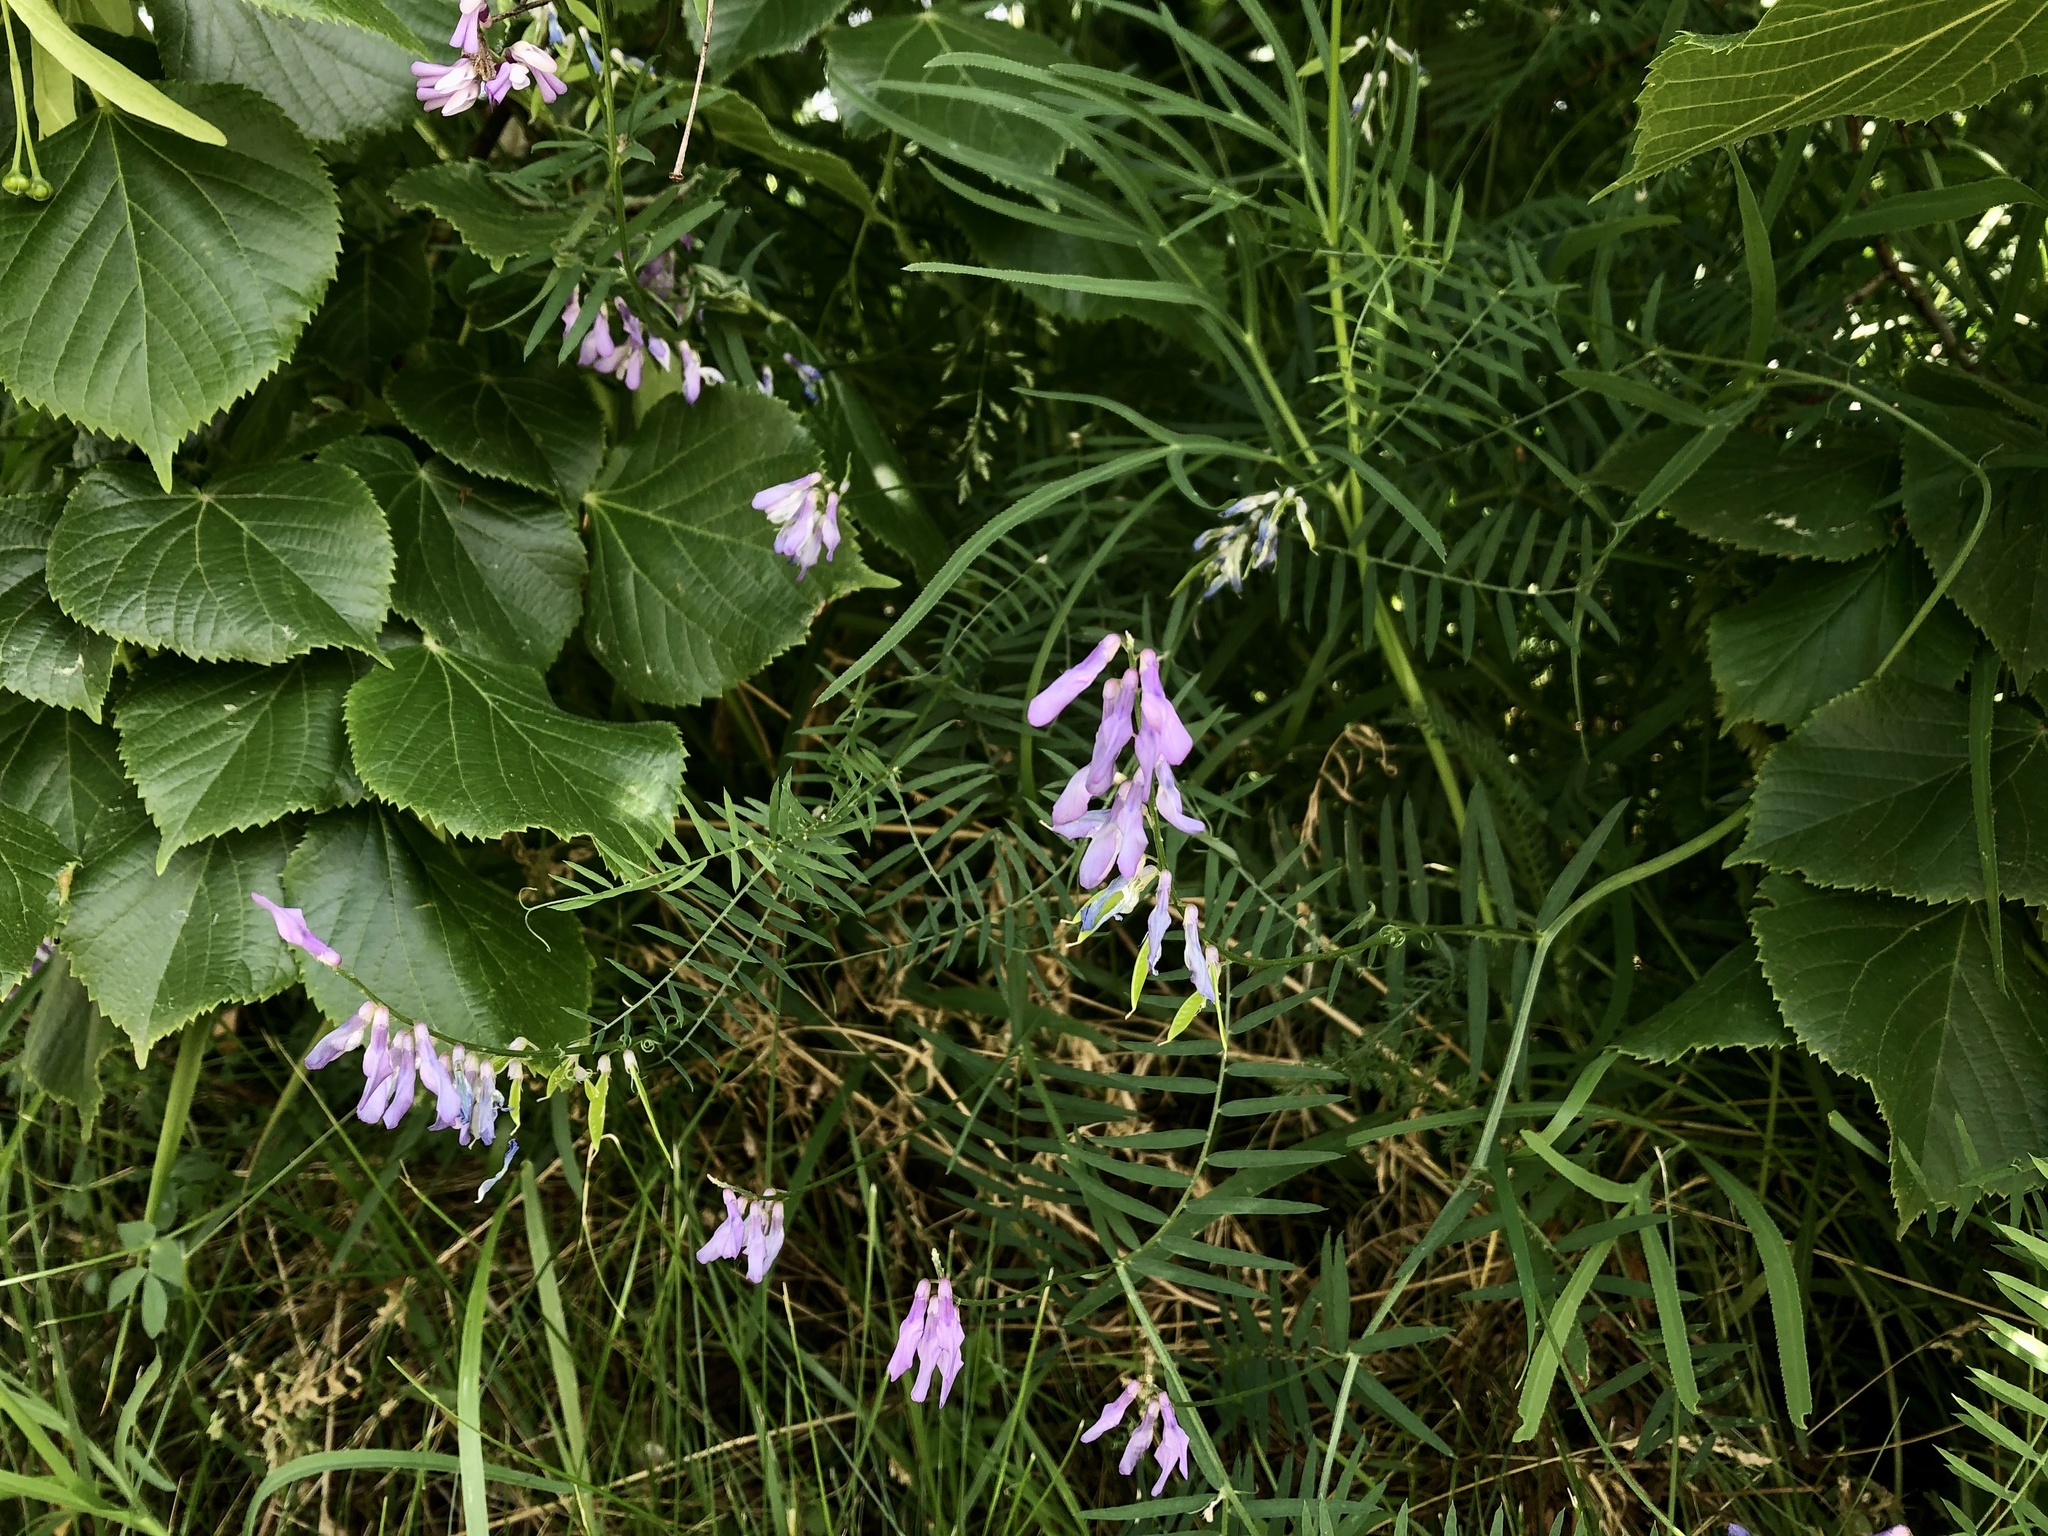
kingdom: Plantae
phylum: Tracheophyta
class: Magnoliopsida
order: Fabales
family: Fabaceae
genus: Vicia
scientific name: Vicia tenuifolia
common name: Fine-leaved vetch
